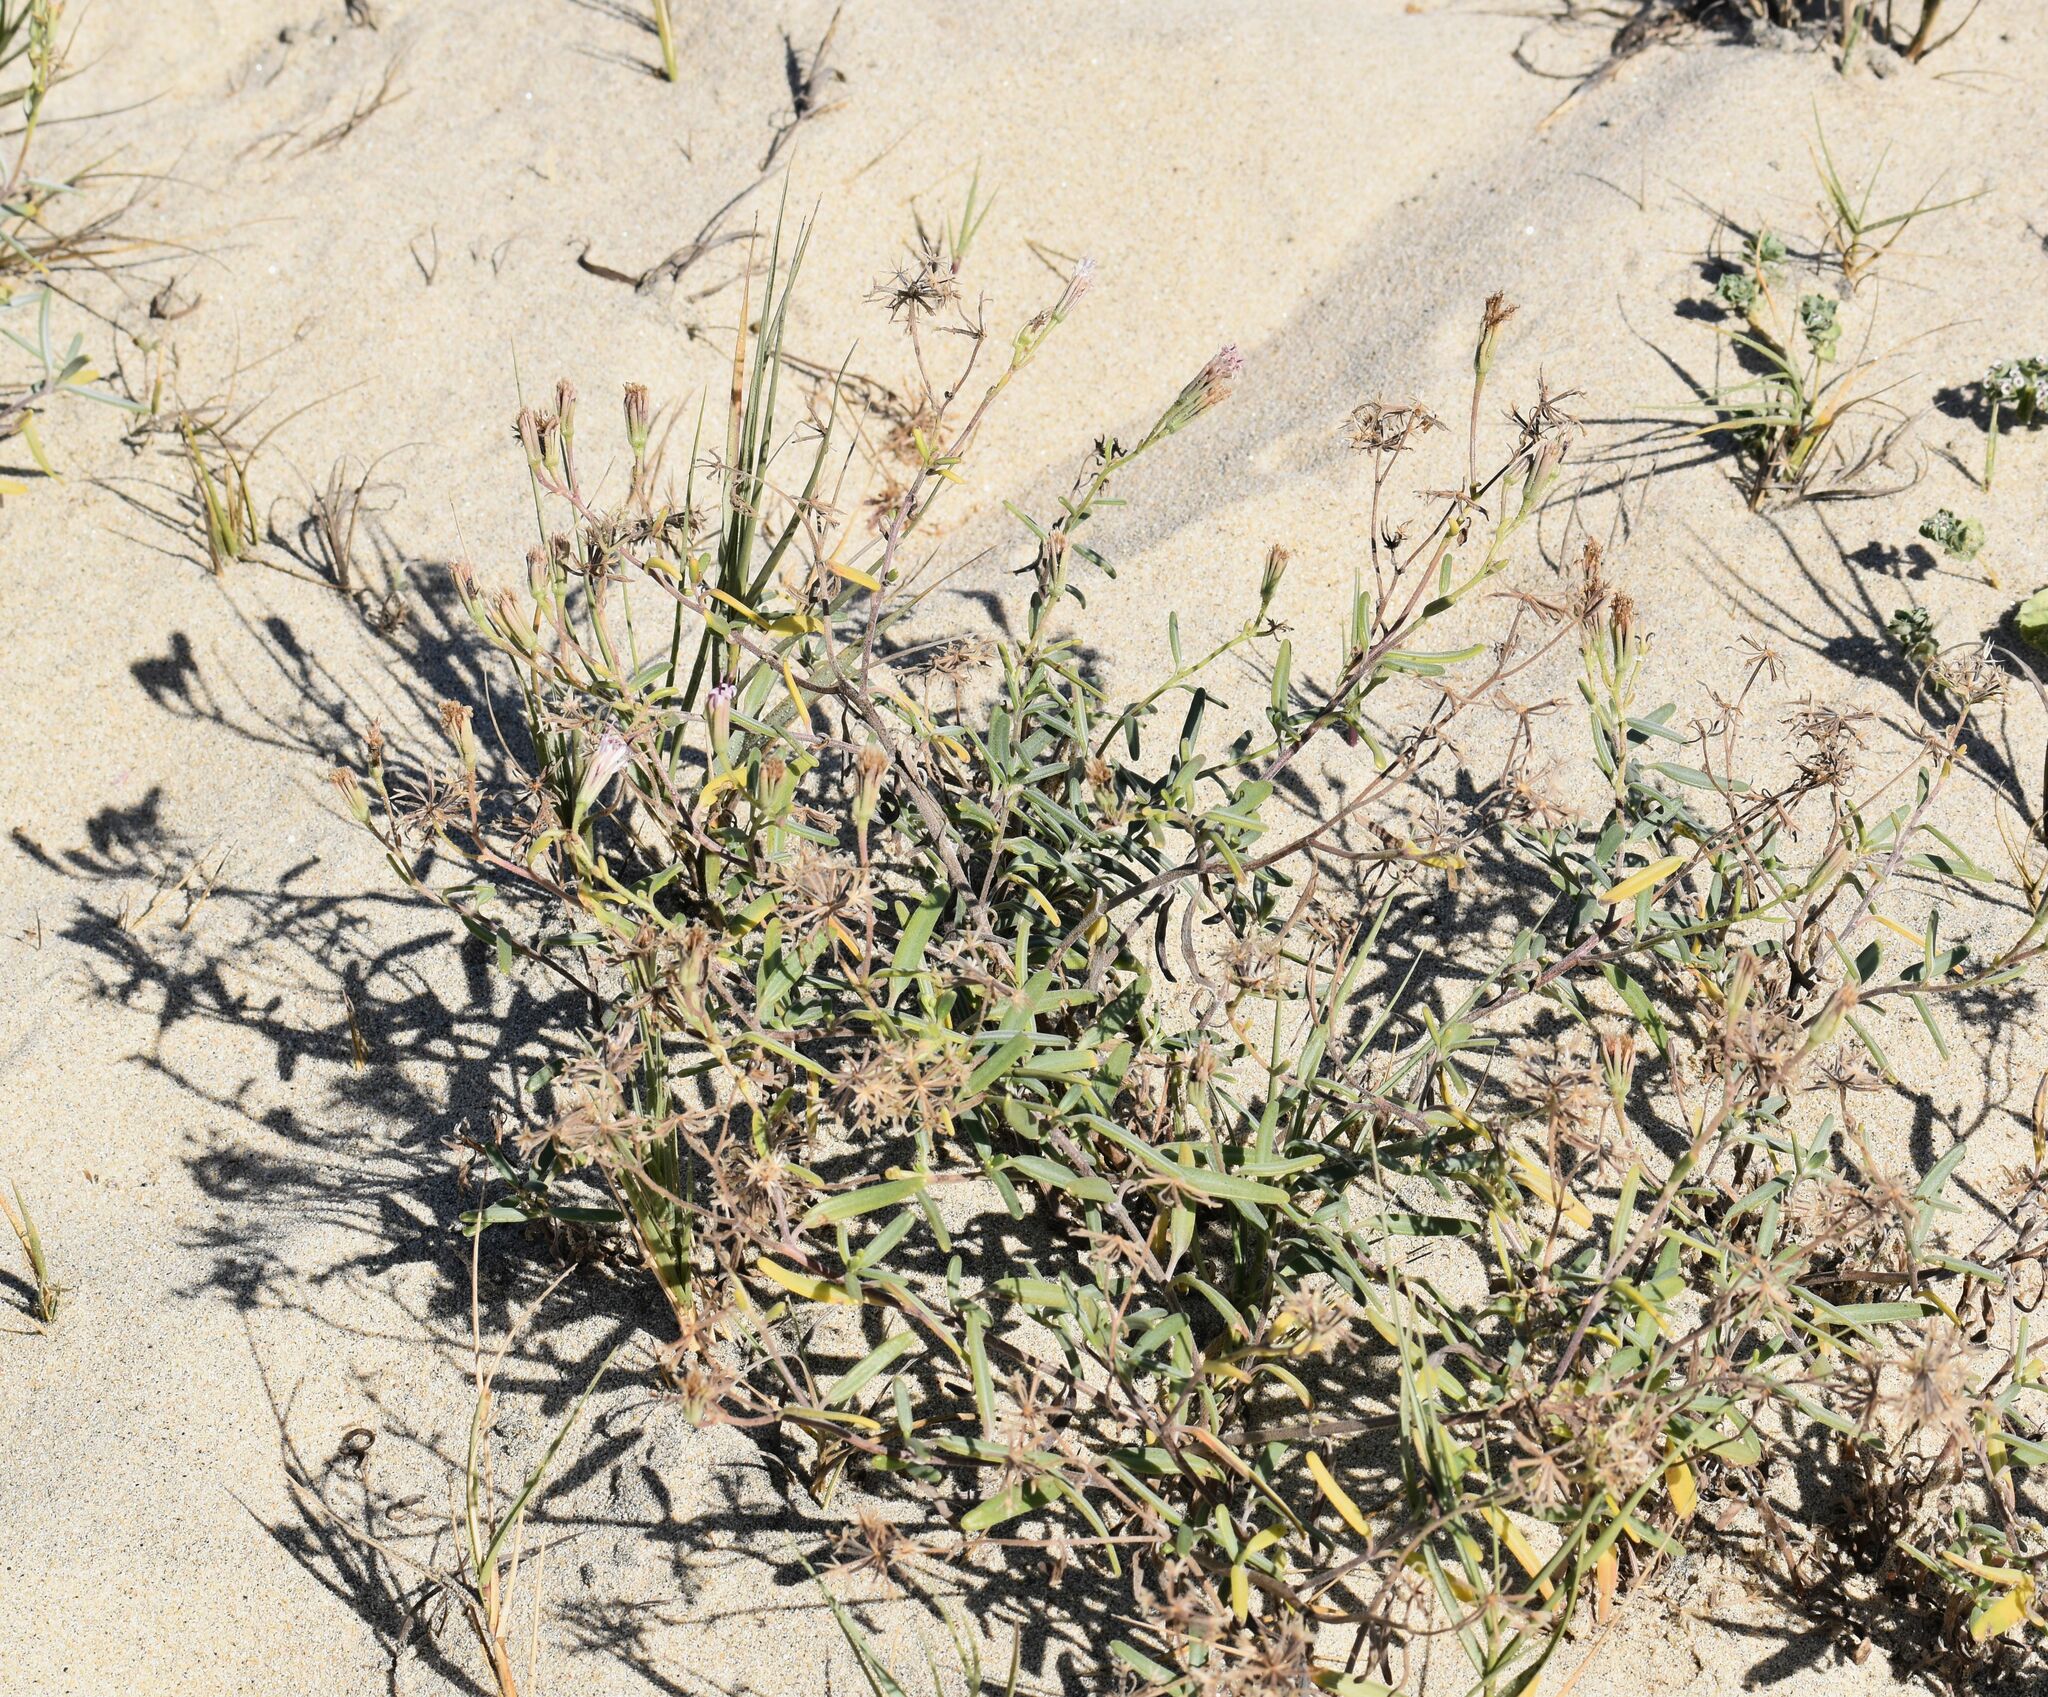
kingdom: Plantae
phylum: Tracheophyta
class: Magnoliopsida
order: Asterales
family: Asteraceae
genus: Palafoxia
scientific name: Palafoxia linearis
